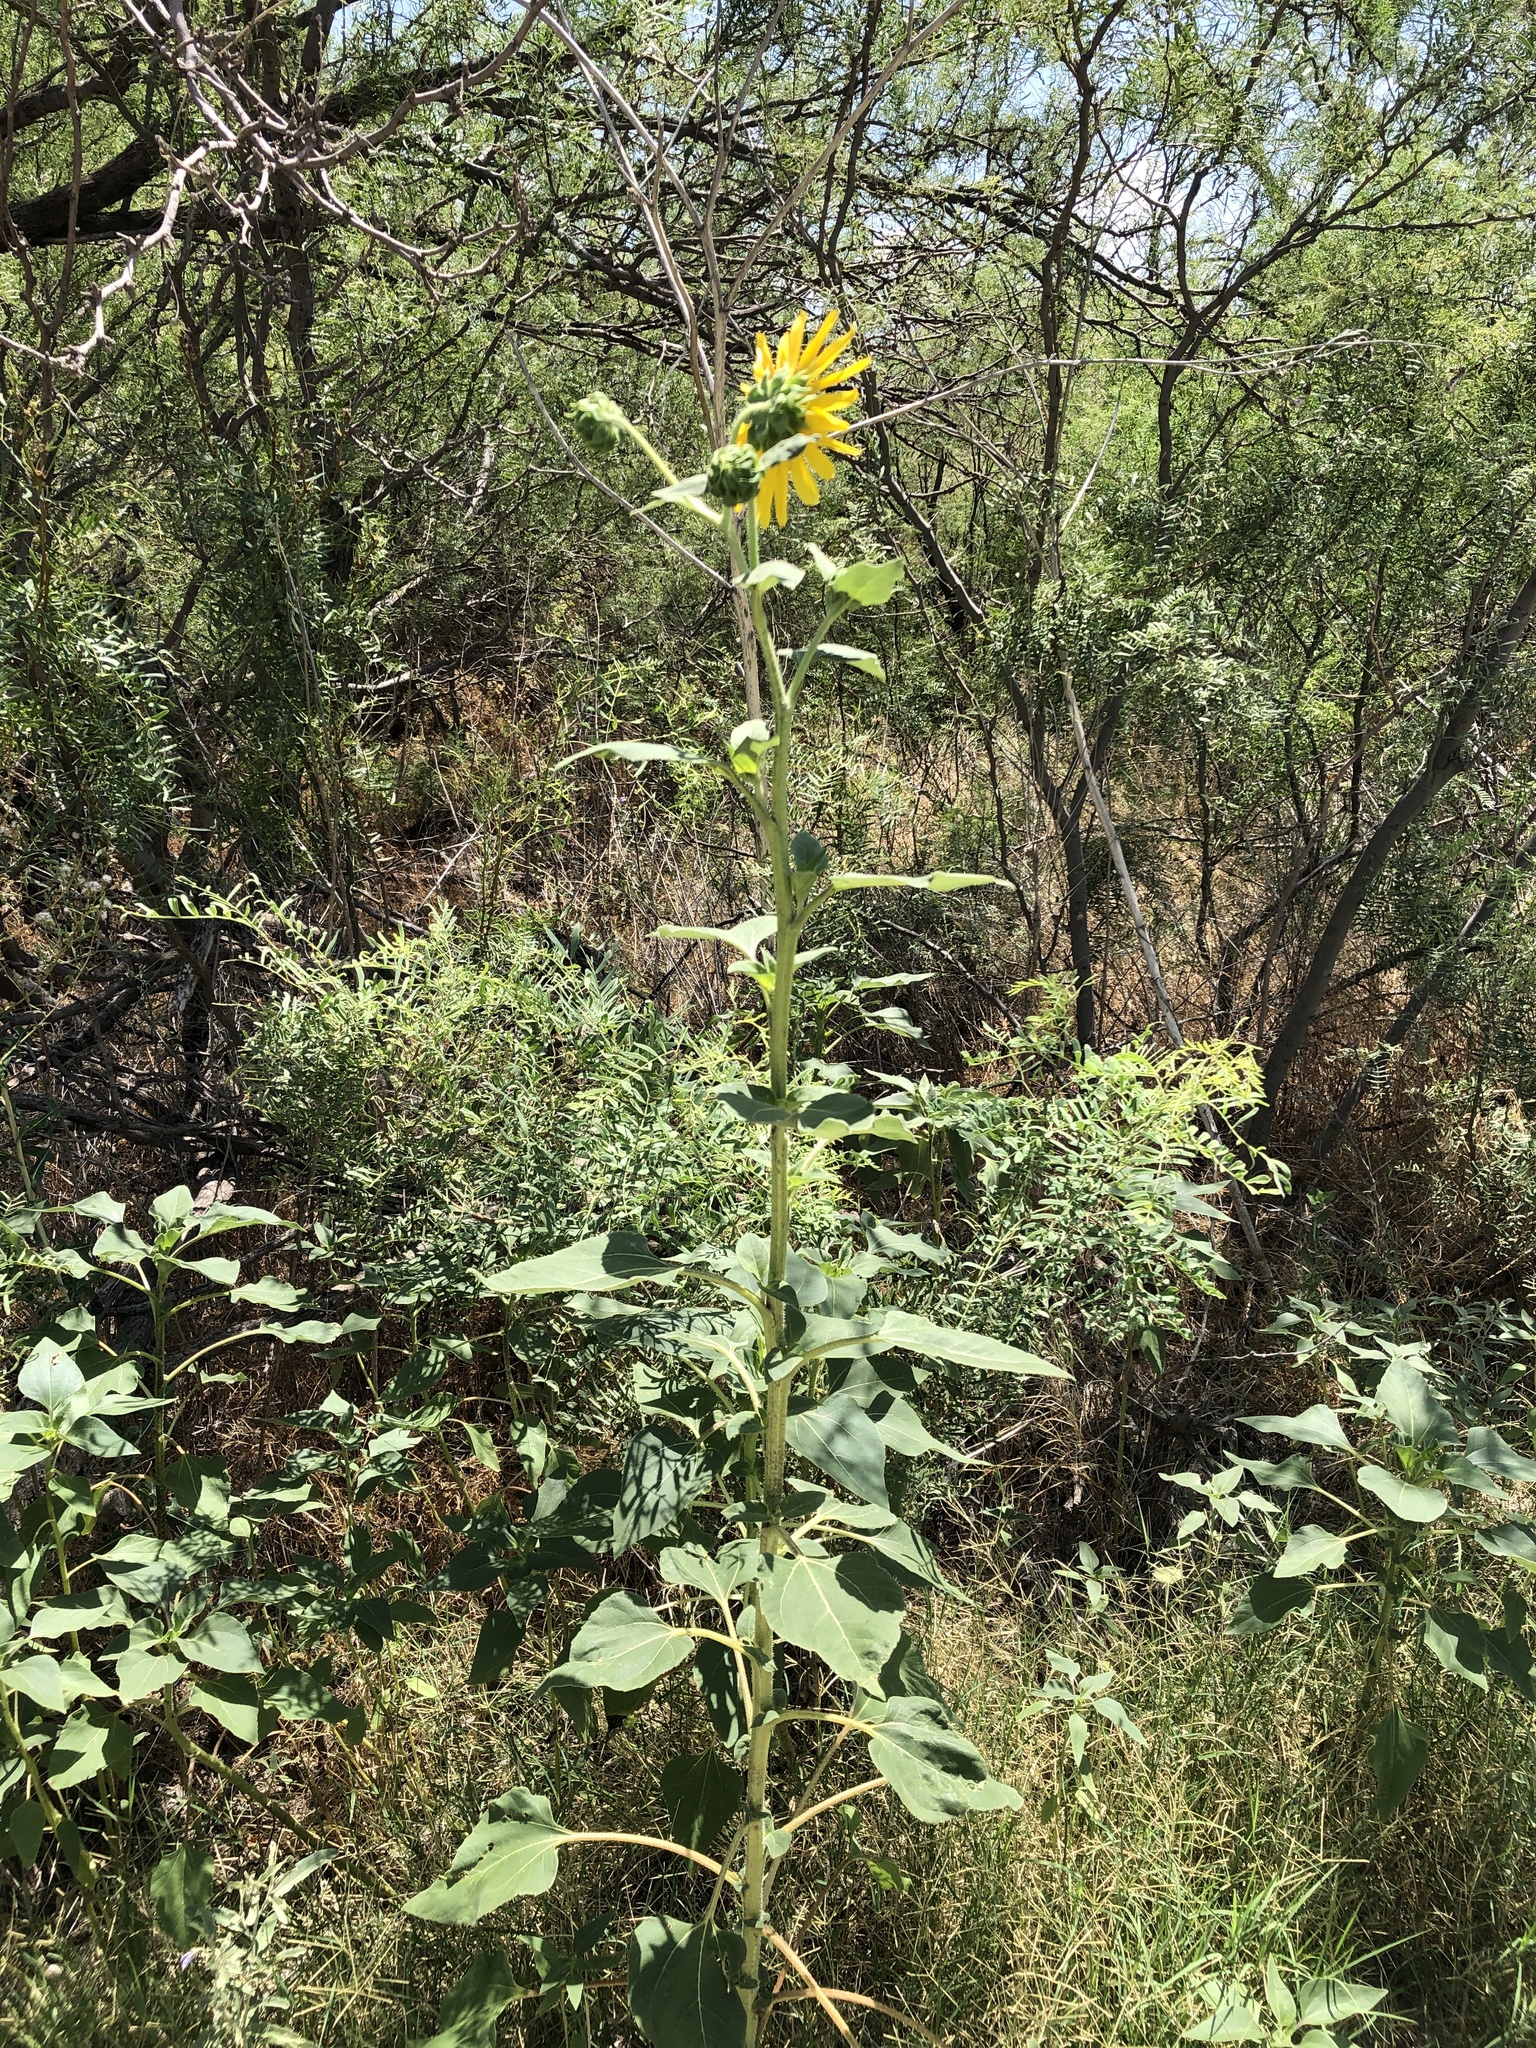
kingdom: Plantae
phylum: Tracheophyta
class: Magnoliopsida
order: Asterales
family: Asteraceae
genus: Helianthus
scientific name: Helianthus annuus
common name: Sunflower
